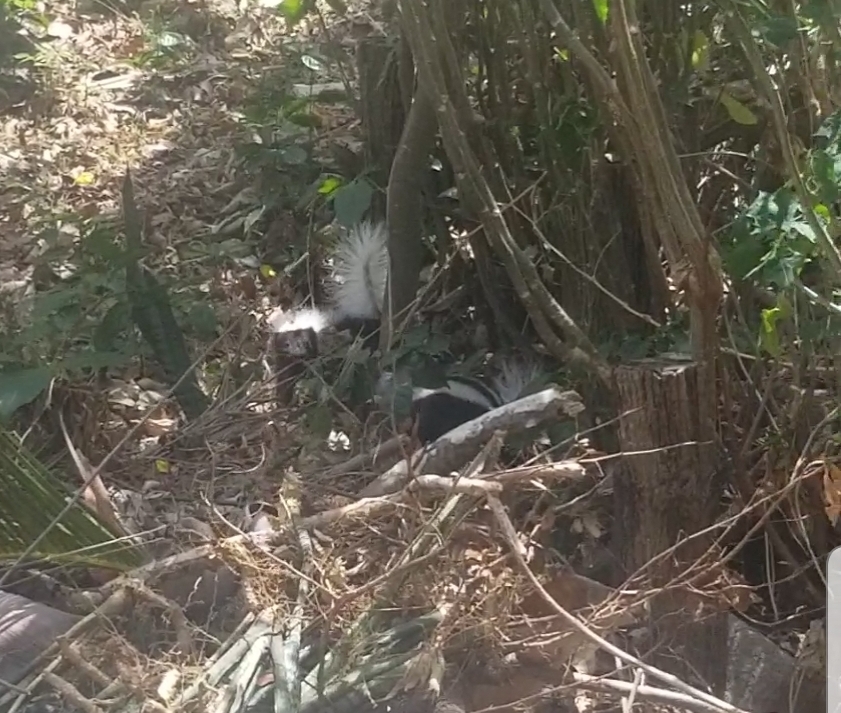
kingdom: Animalia
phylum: Chordata
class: Mammalia
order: Carnivora
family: Mephitidae
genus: Conepatus
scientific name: Conepatus semistriatus
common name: Striped hog-nosed skunk
